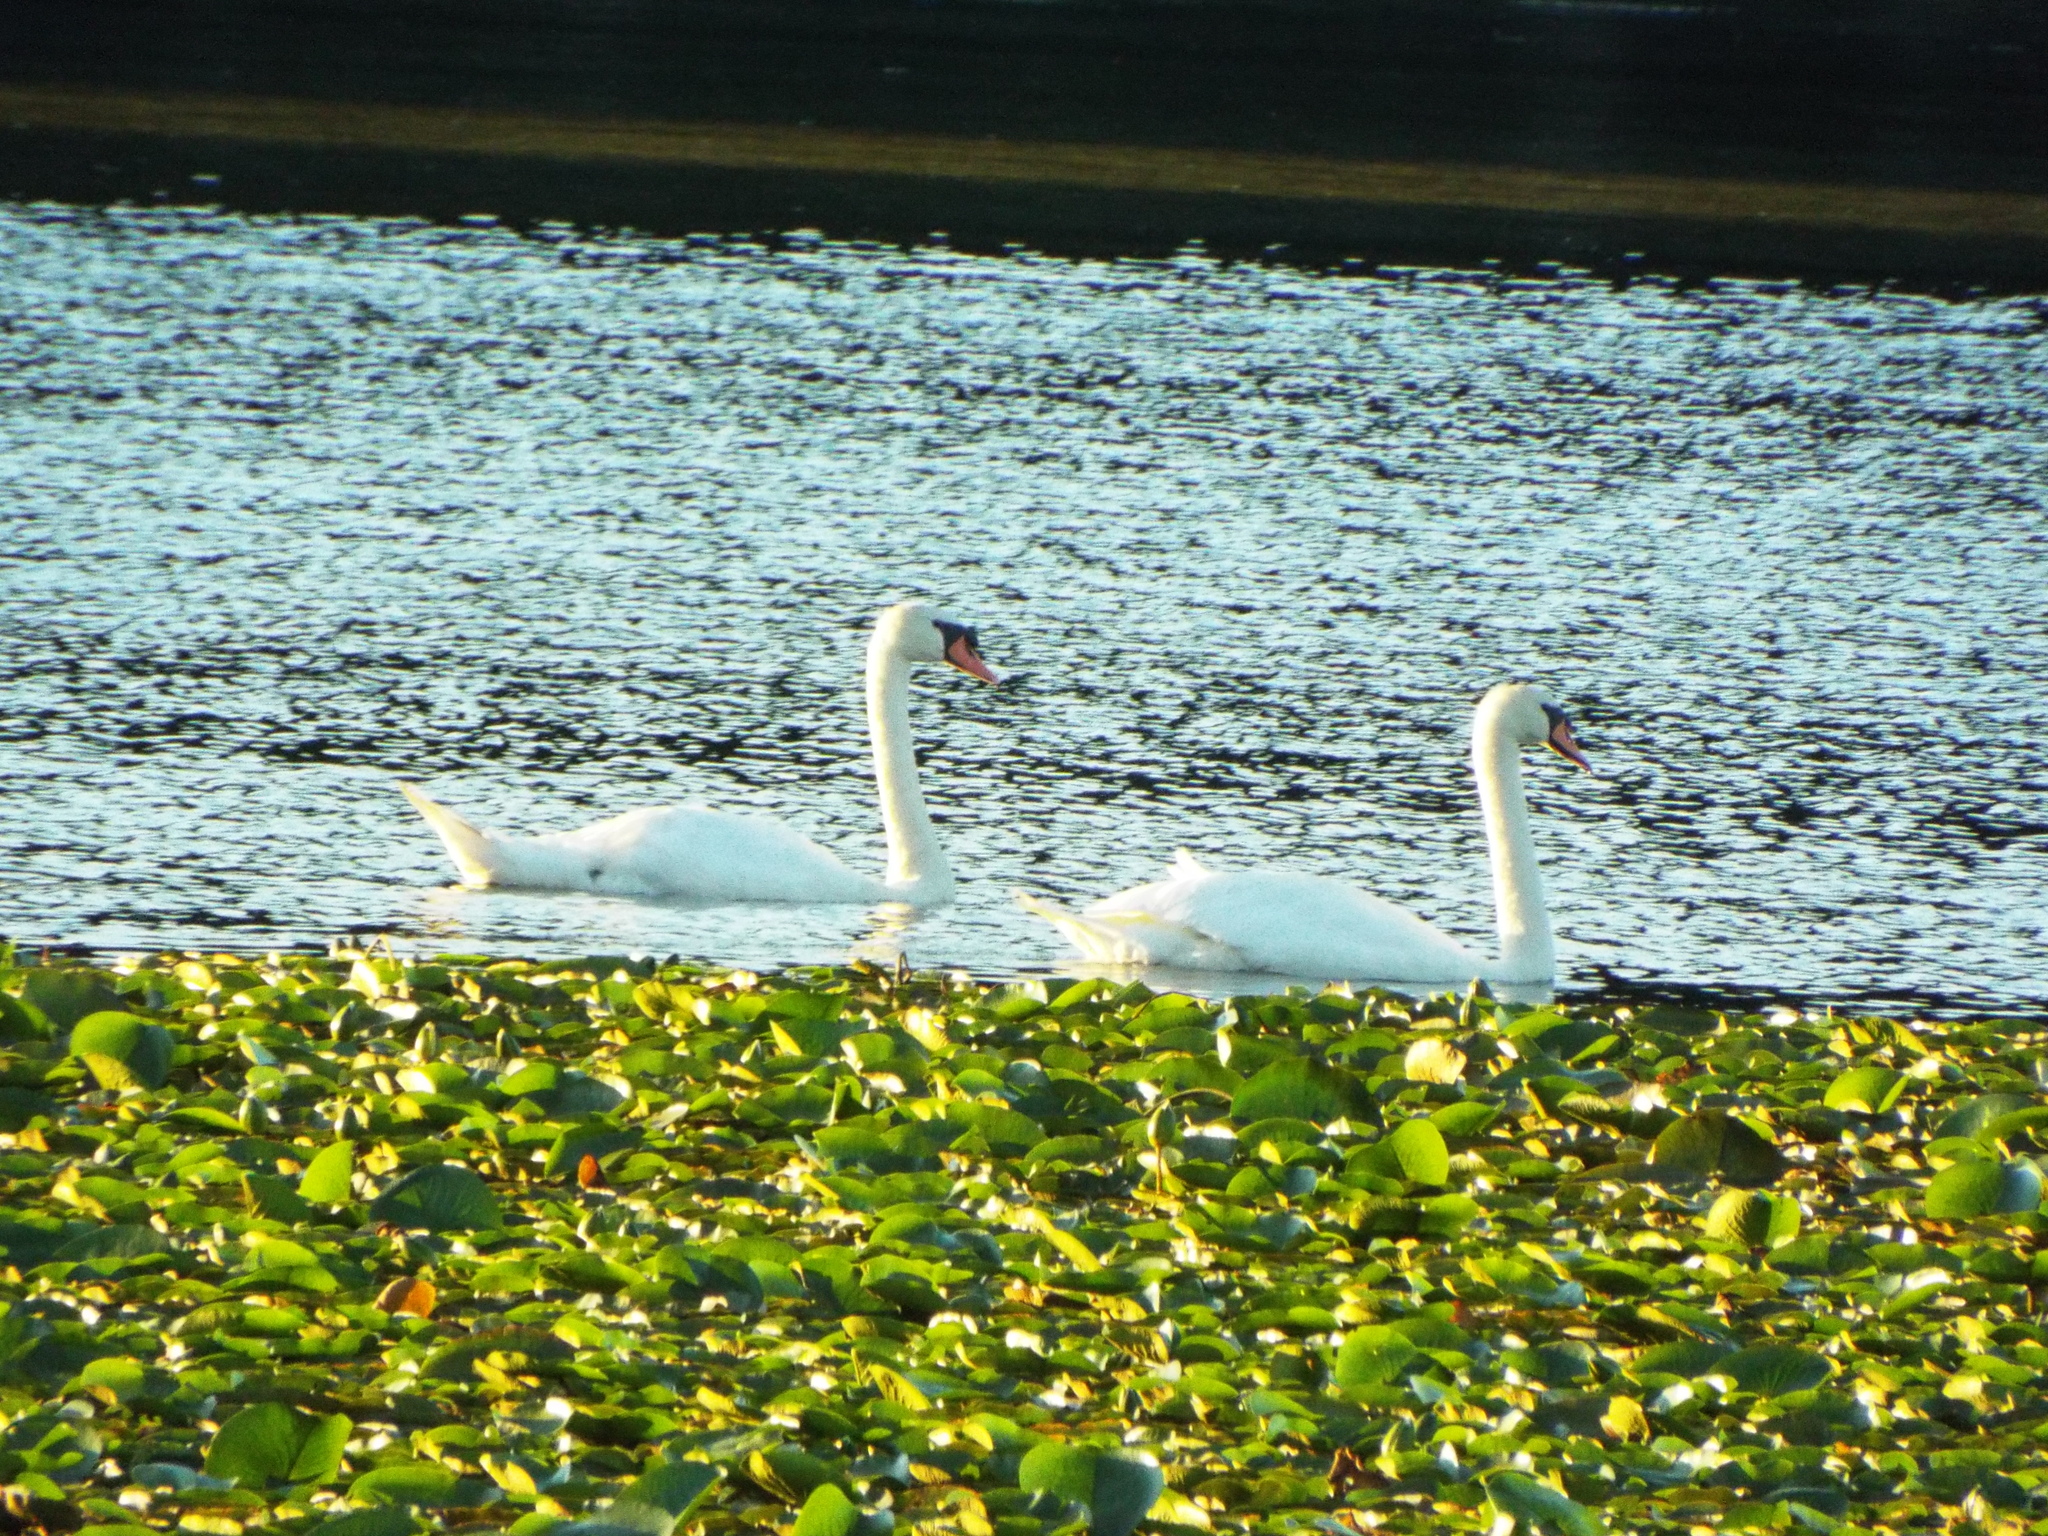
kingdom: Animalia
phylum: Chordata
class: Aves
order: Anseriformes
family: Anatidae
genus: Cygnus
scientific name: Cygnus olor
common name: Mute swan
